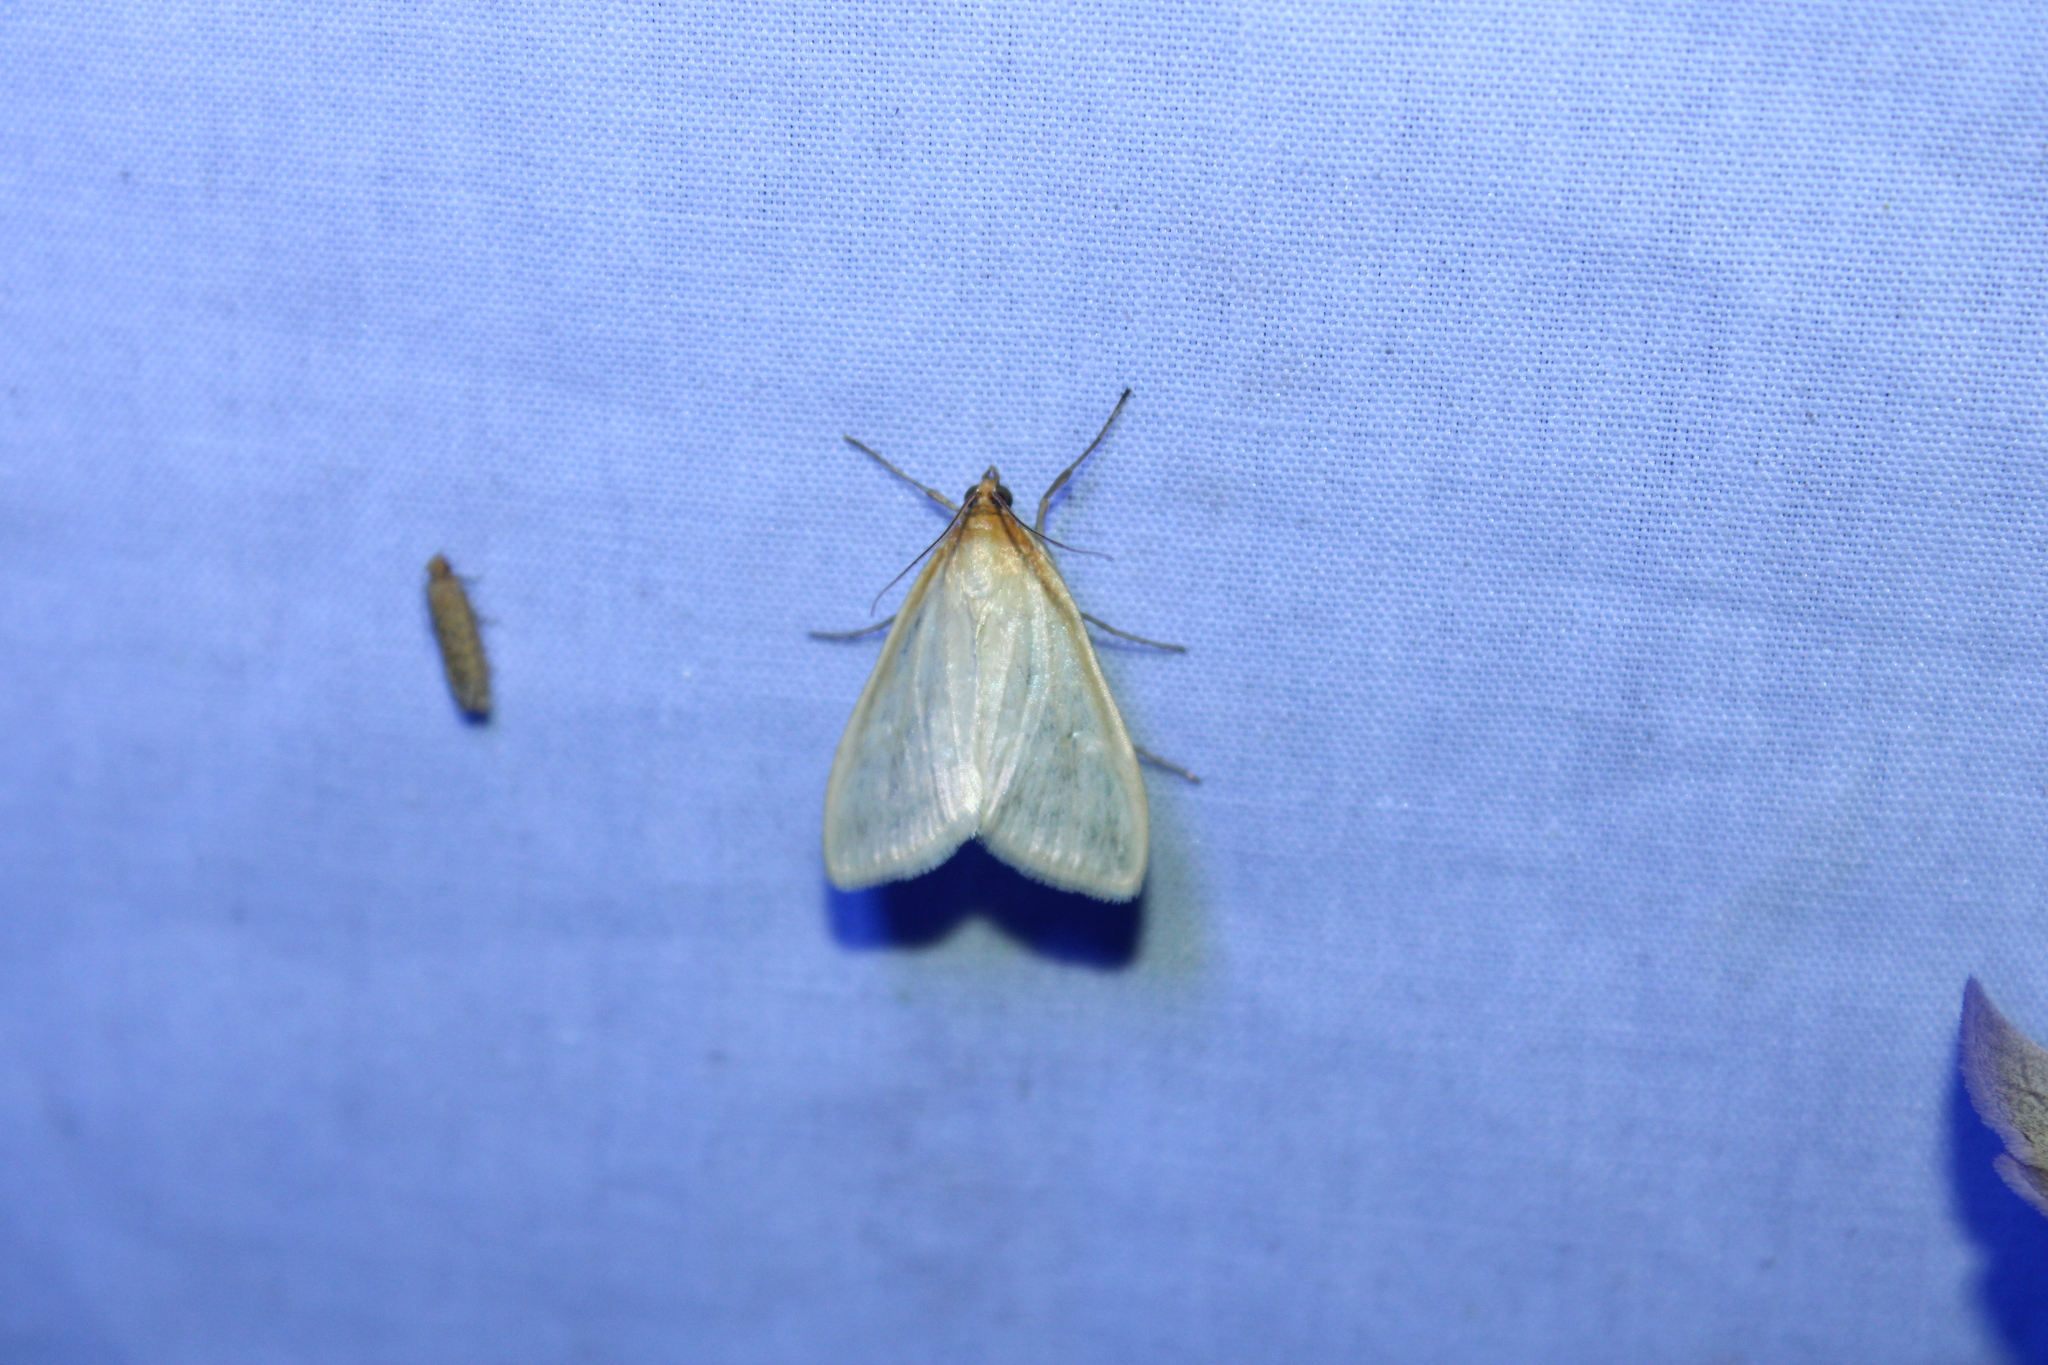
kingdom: Animalia
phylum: Arthropoda
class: Insecta
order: Lepidoptera
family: Crambidae
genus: Sitochroa
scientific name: Sitochroa dasconalis
